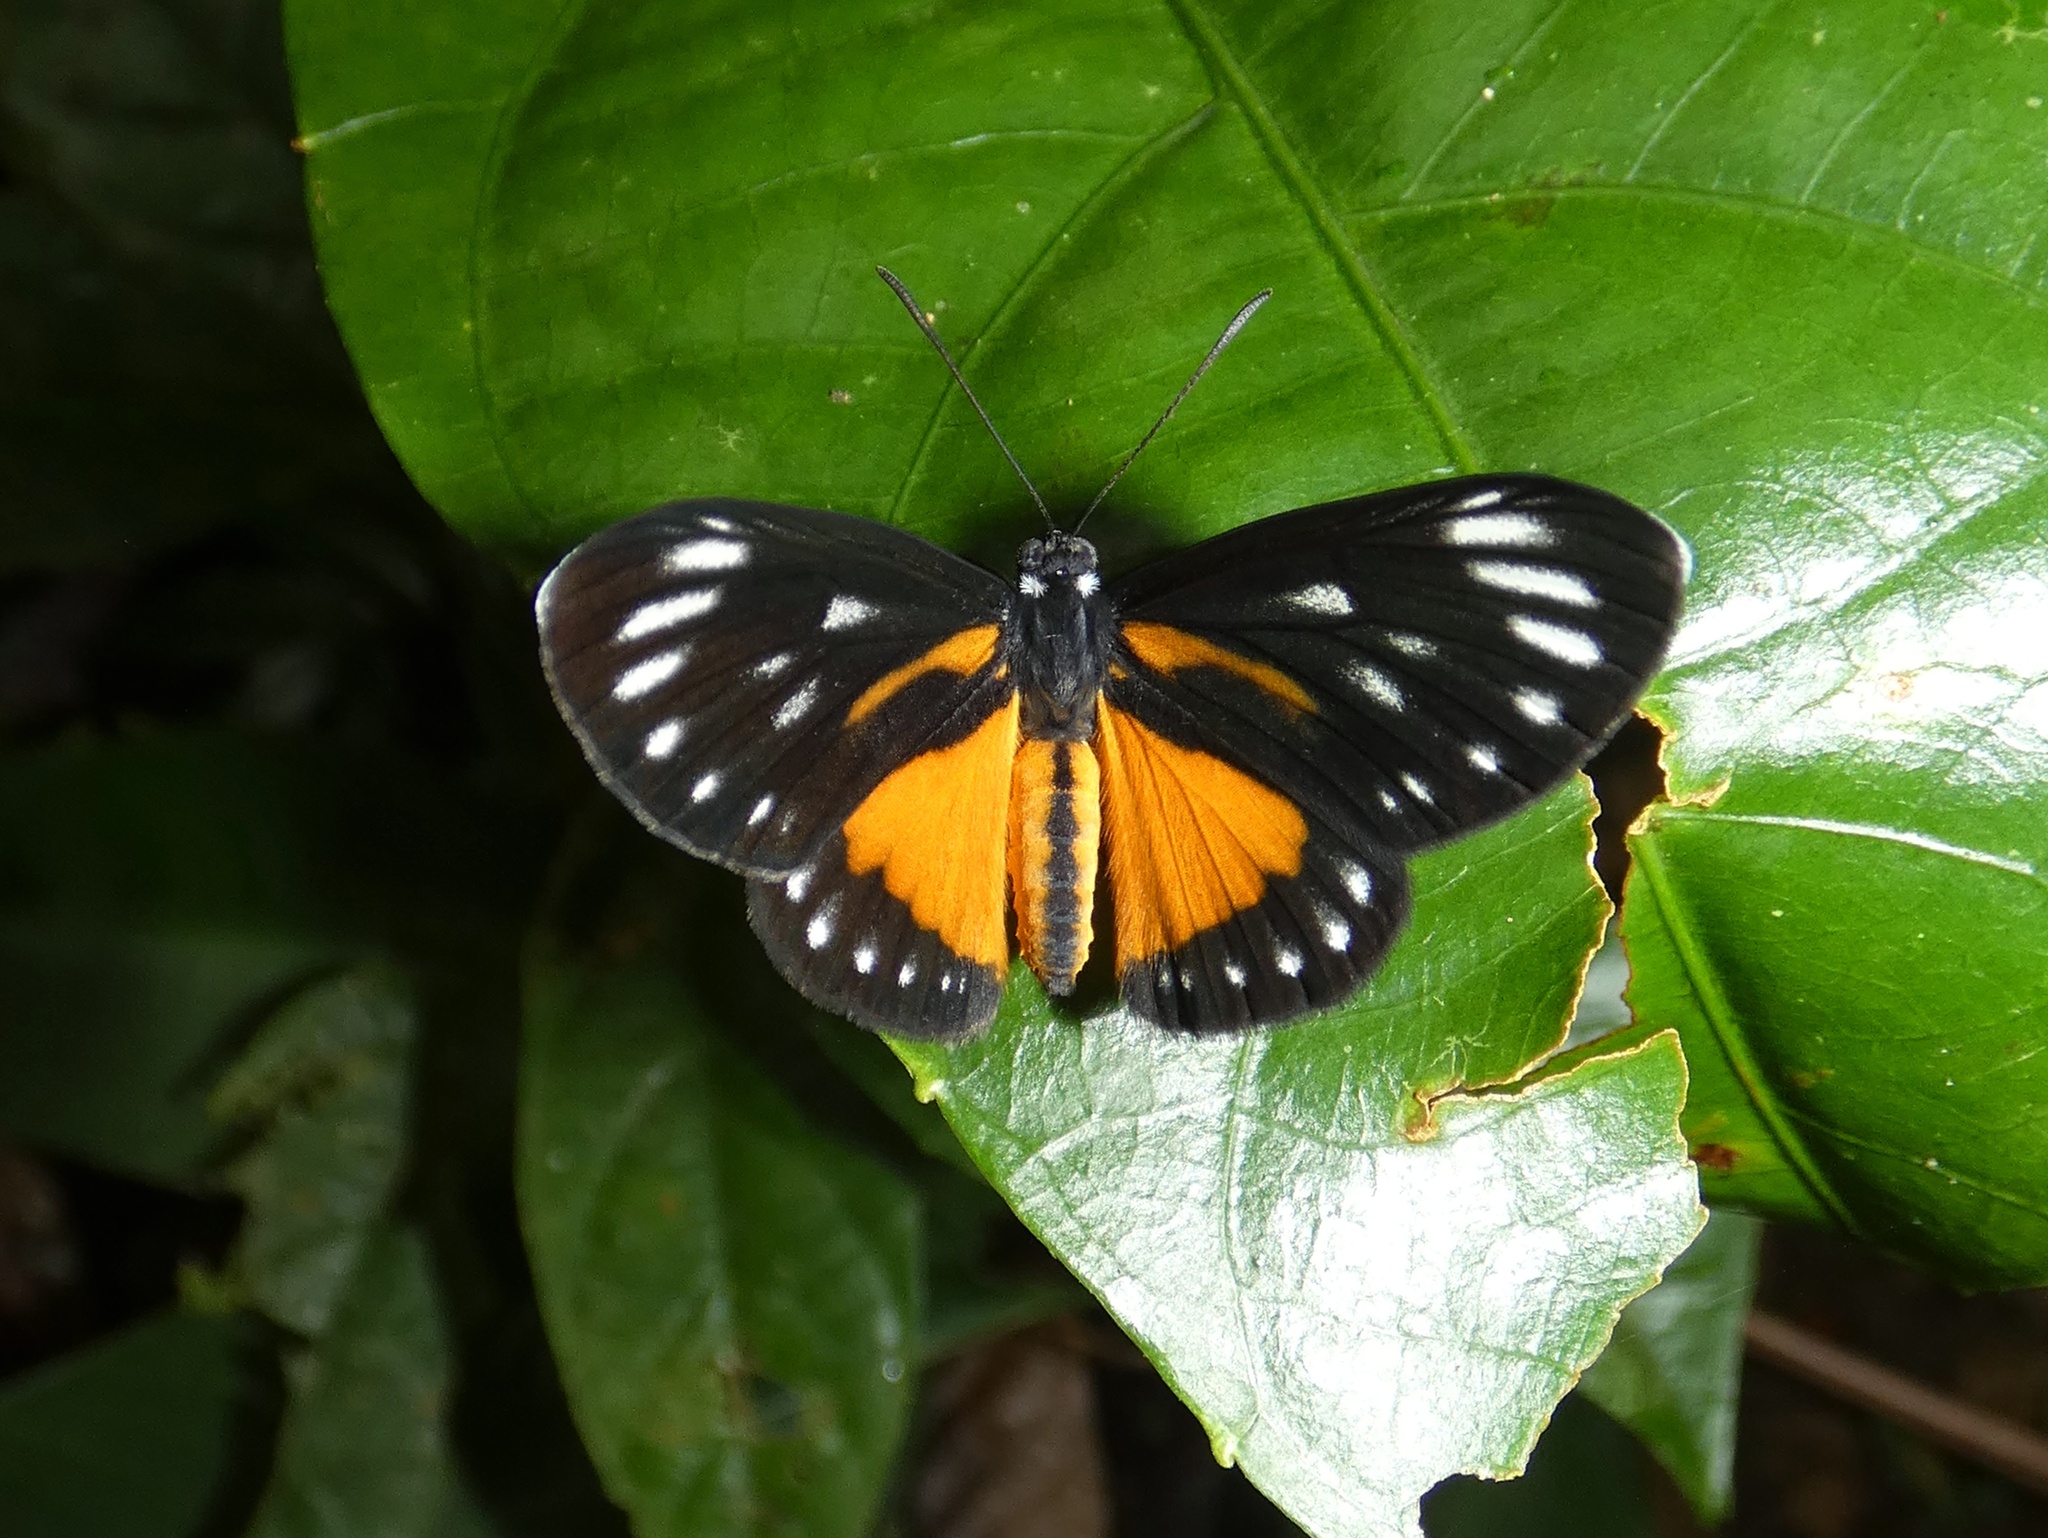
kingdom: Animalia
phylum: Arthropoda
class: Insecta
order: Lepidoptera
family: Riodinidae
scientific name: Riodinidae
